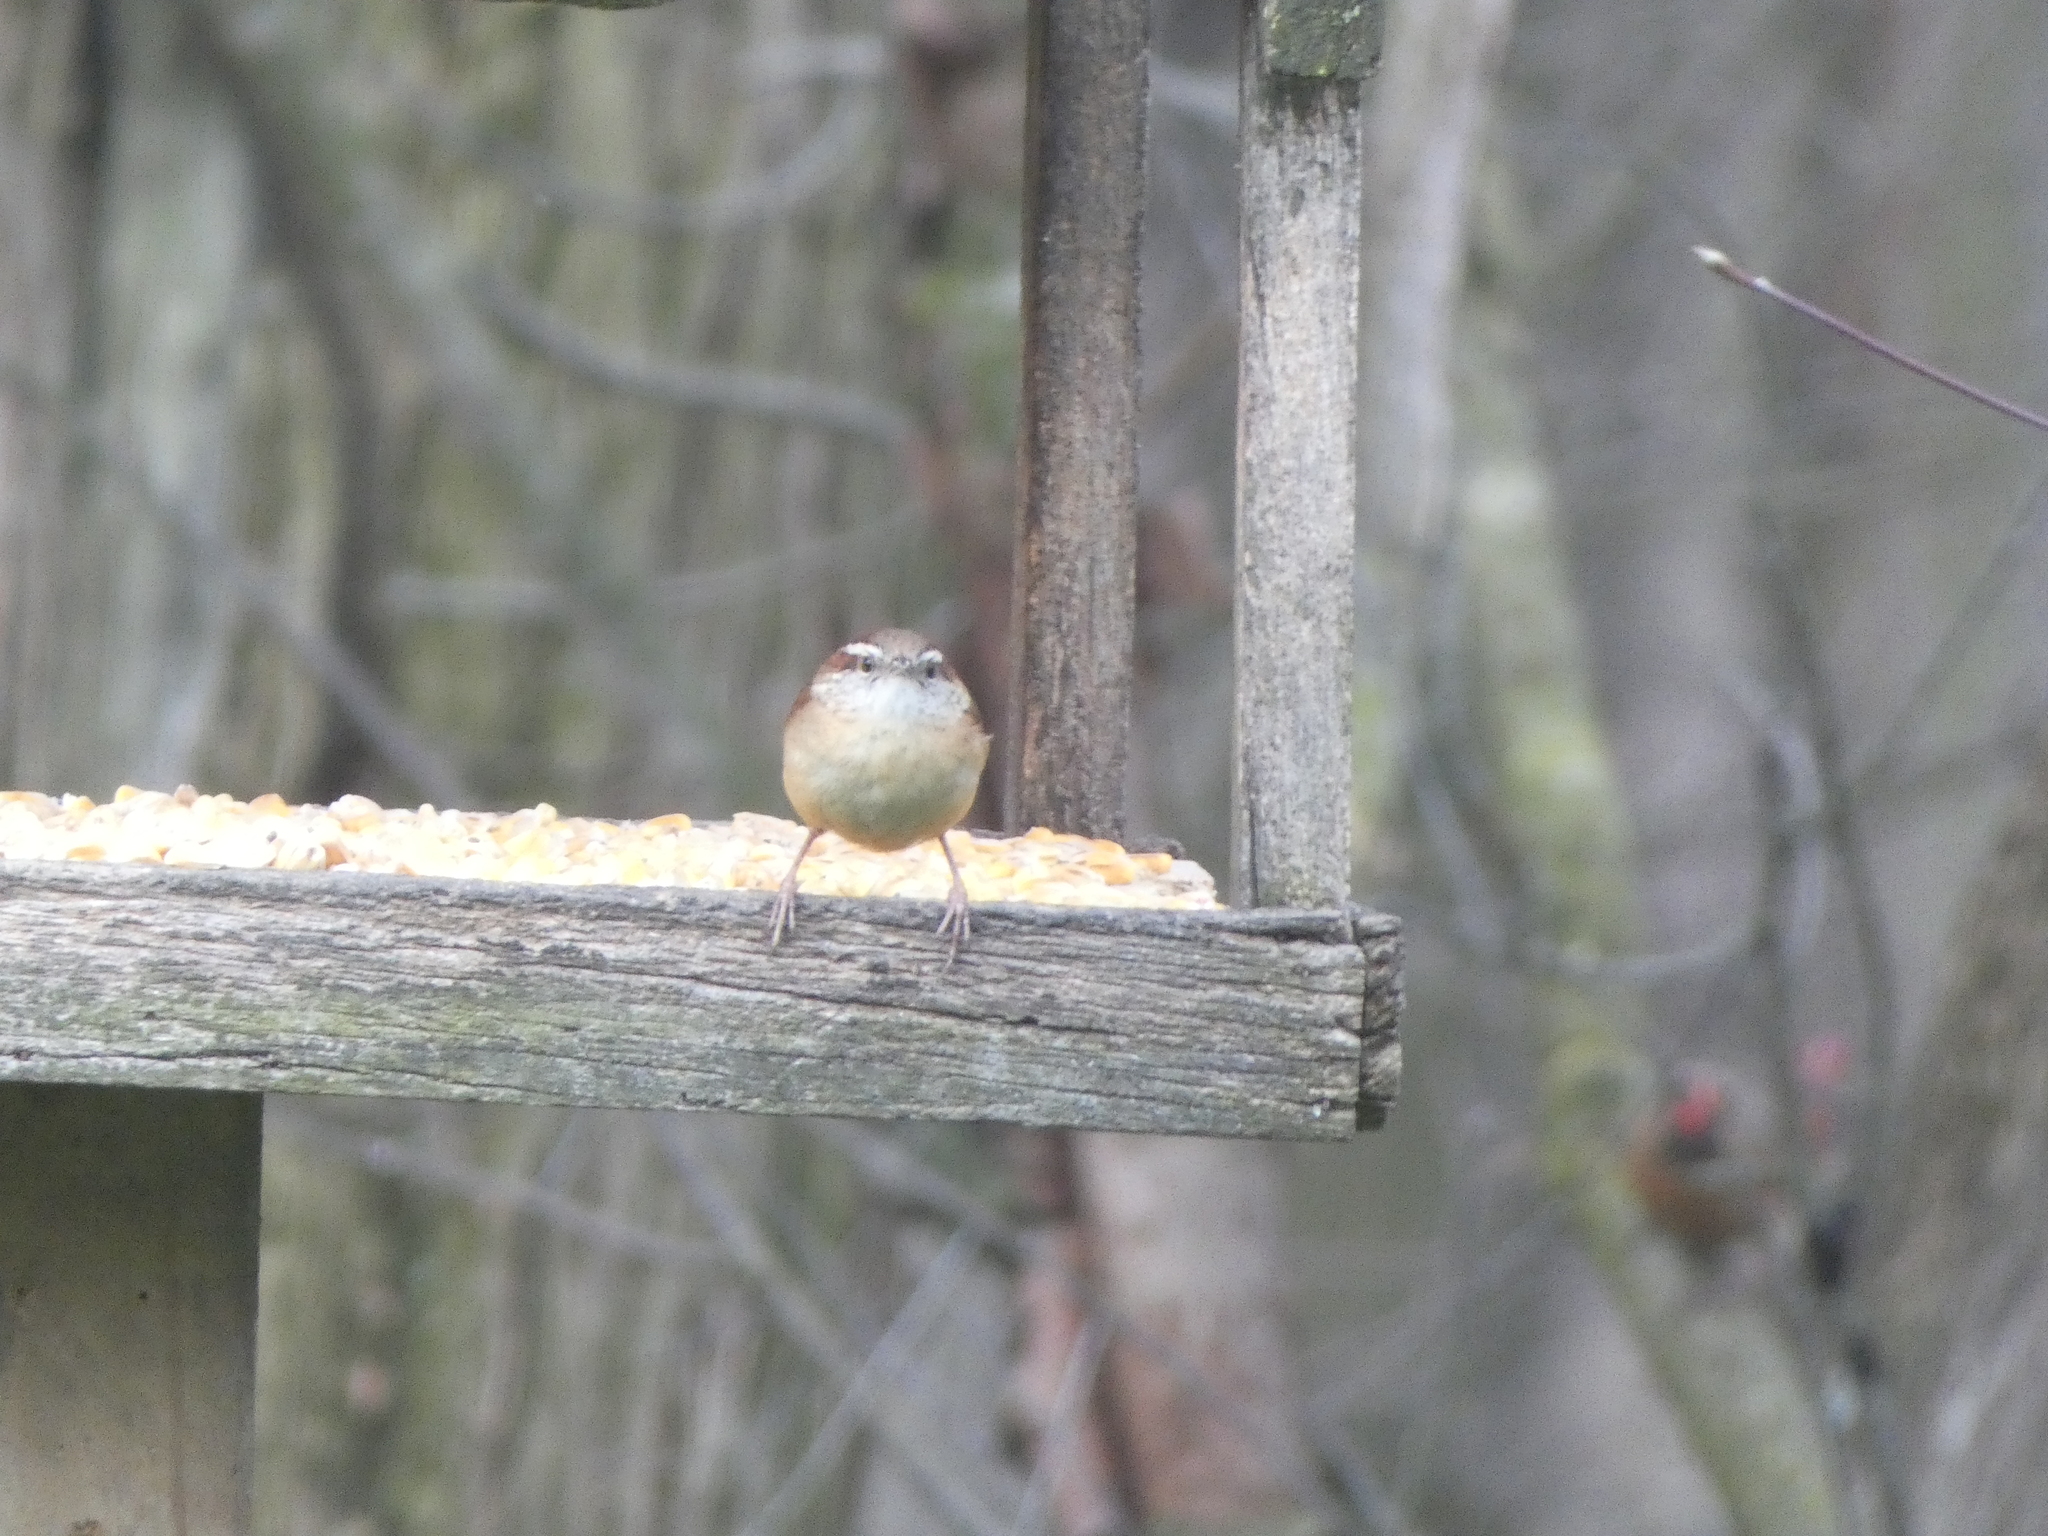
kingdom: Animalia
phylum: Chordata
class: Aves
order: Passeriformes
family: Troglodytidae
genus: Thryothorus
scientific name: Thryothorus ludovicianus
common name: Carolina wren
